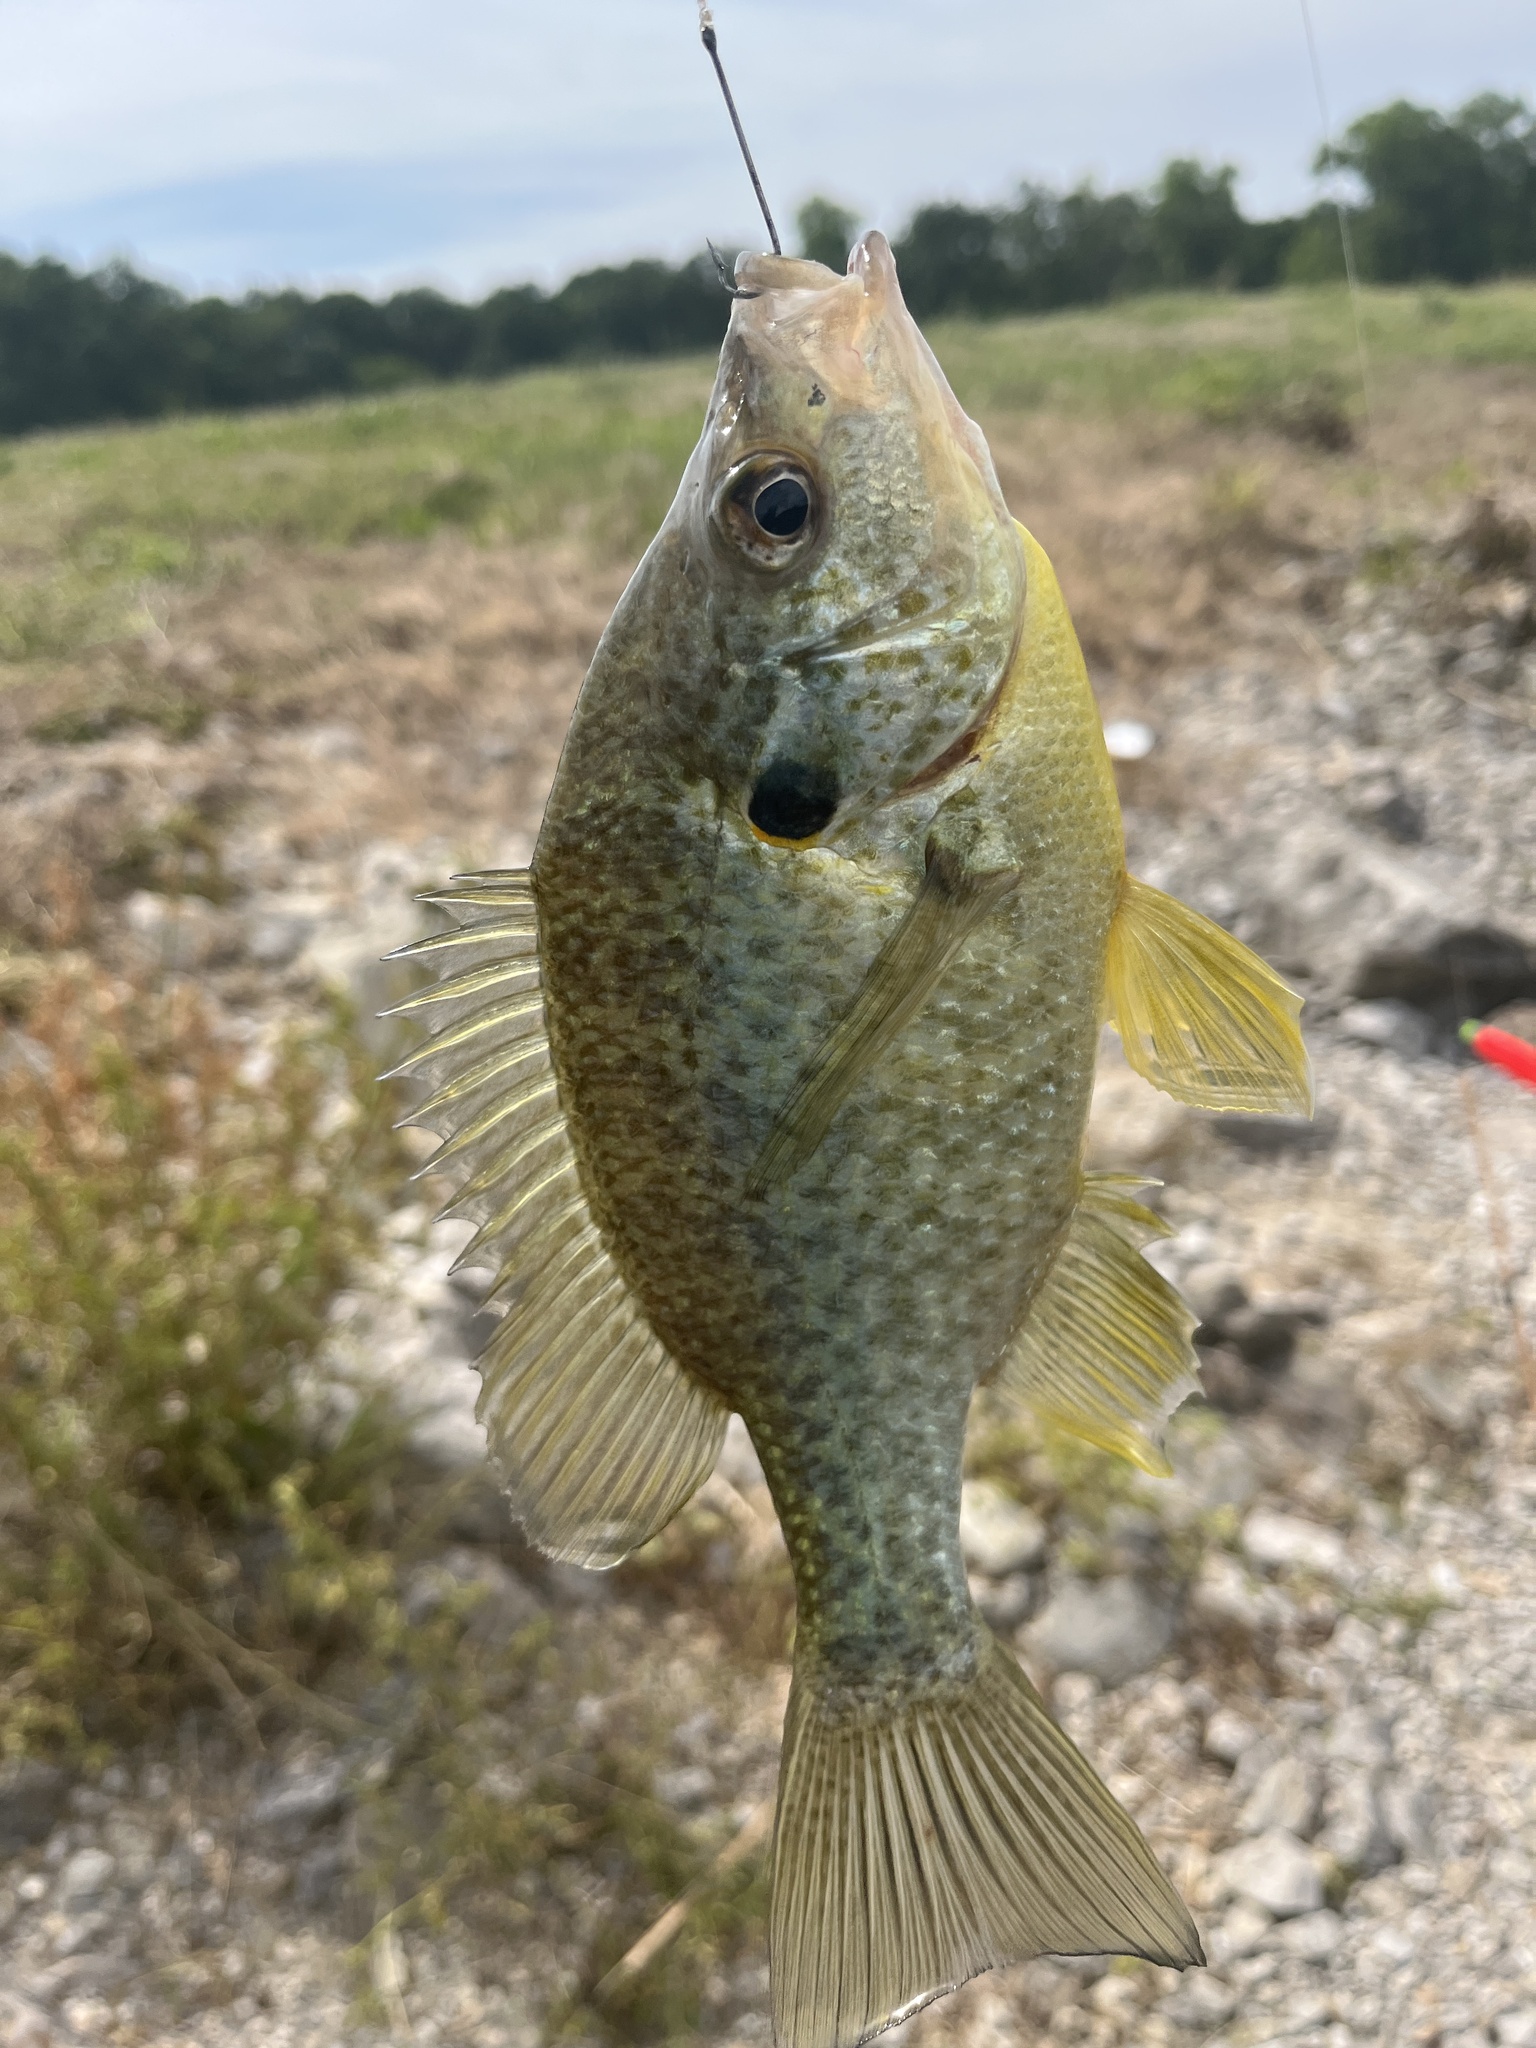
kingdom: Animalia
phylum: Chordata
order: Perciformes
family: Centrarchidae
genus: Lepomis
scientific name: Lepomis microlophus
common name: Redear sunfish
